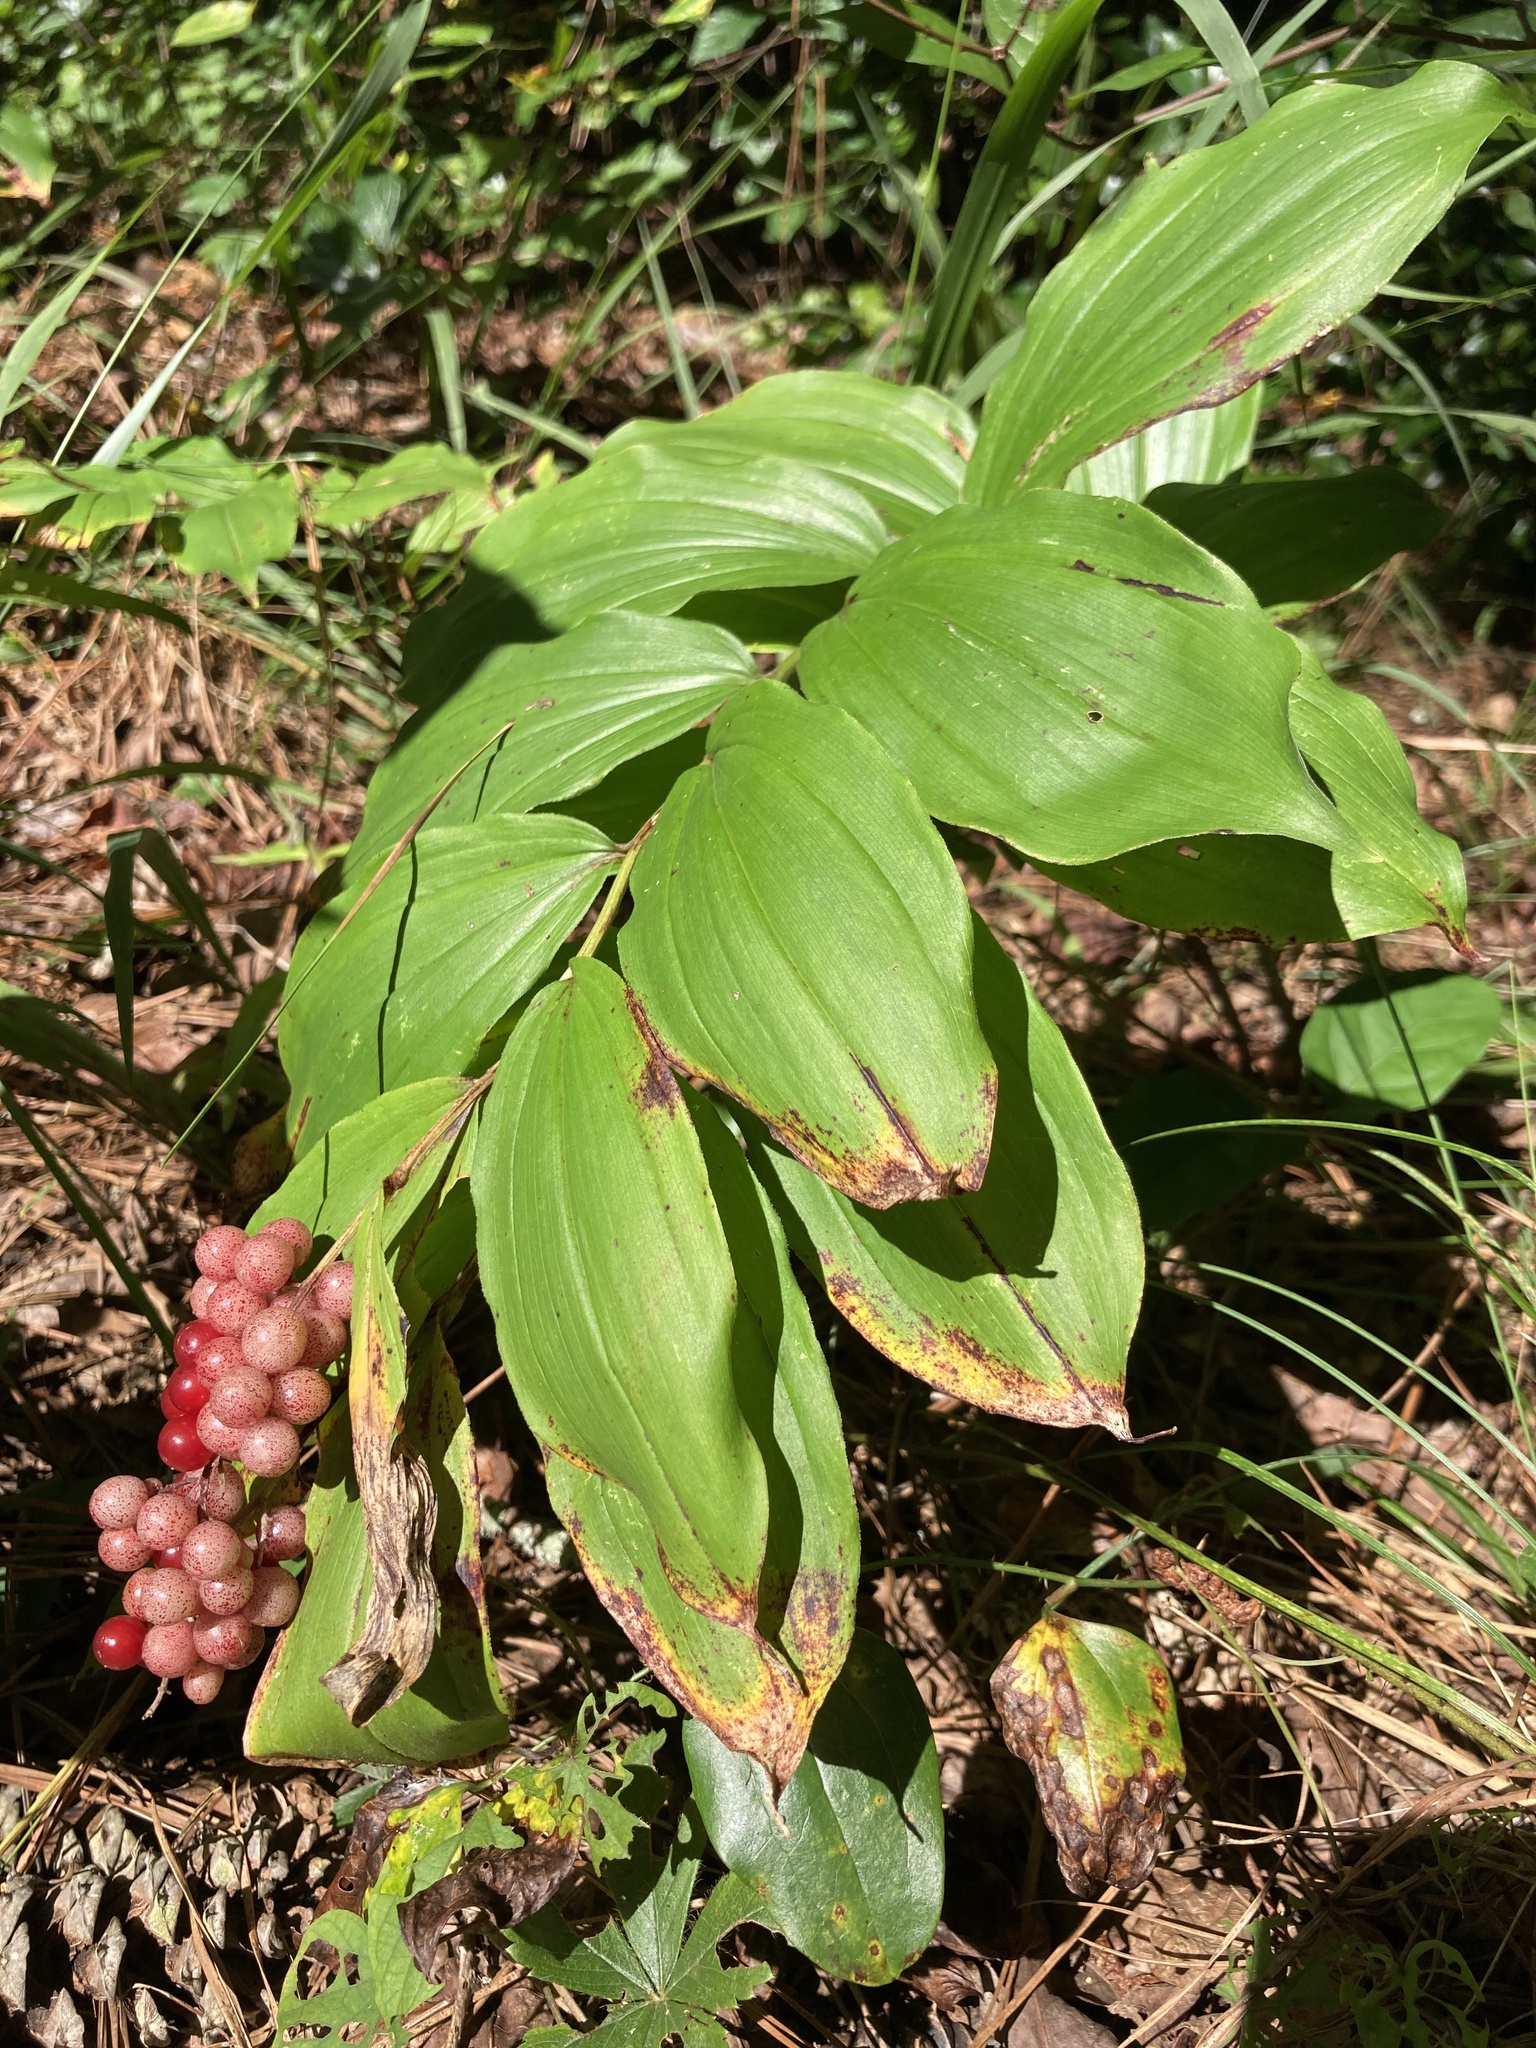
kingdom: Plantae
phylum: Tracheophyta
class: Liliopsida
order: Asparagales
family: Asparagaceae
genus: Maianthemum
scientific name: Maianthemum racemosum
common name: False spikenard
